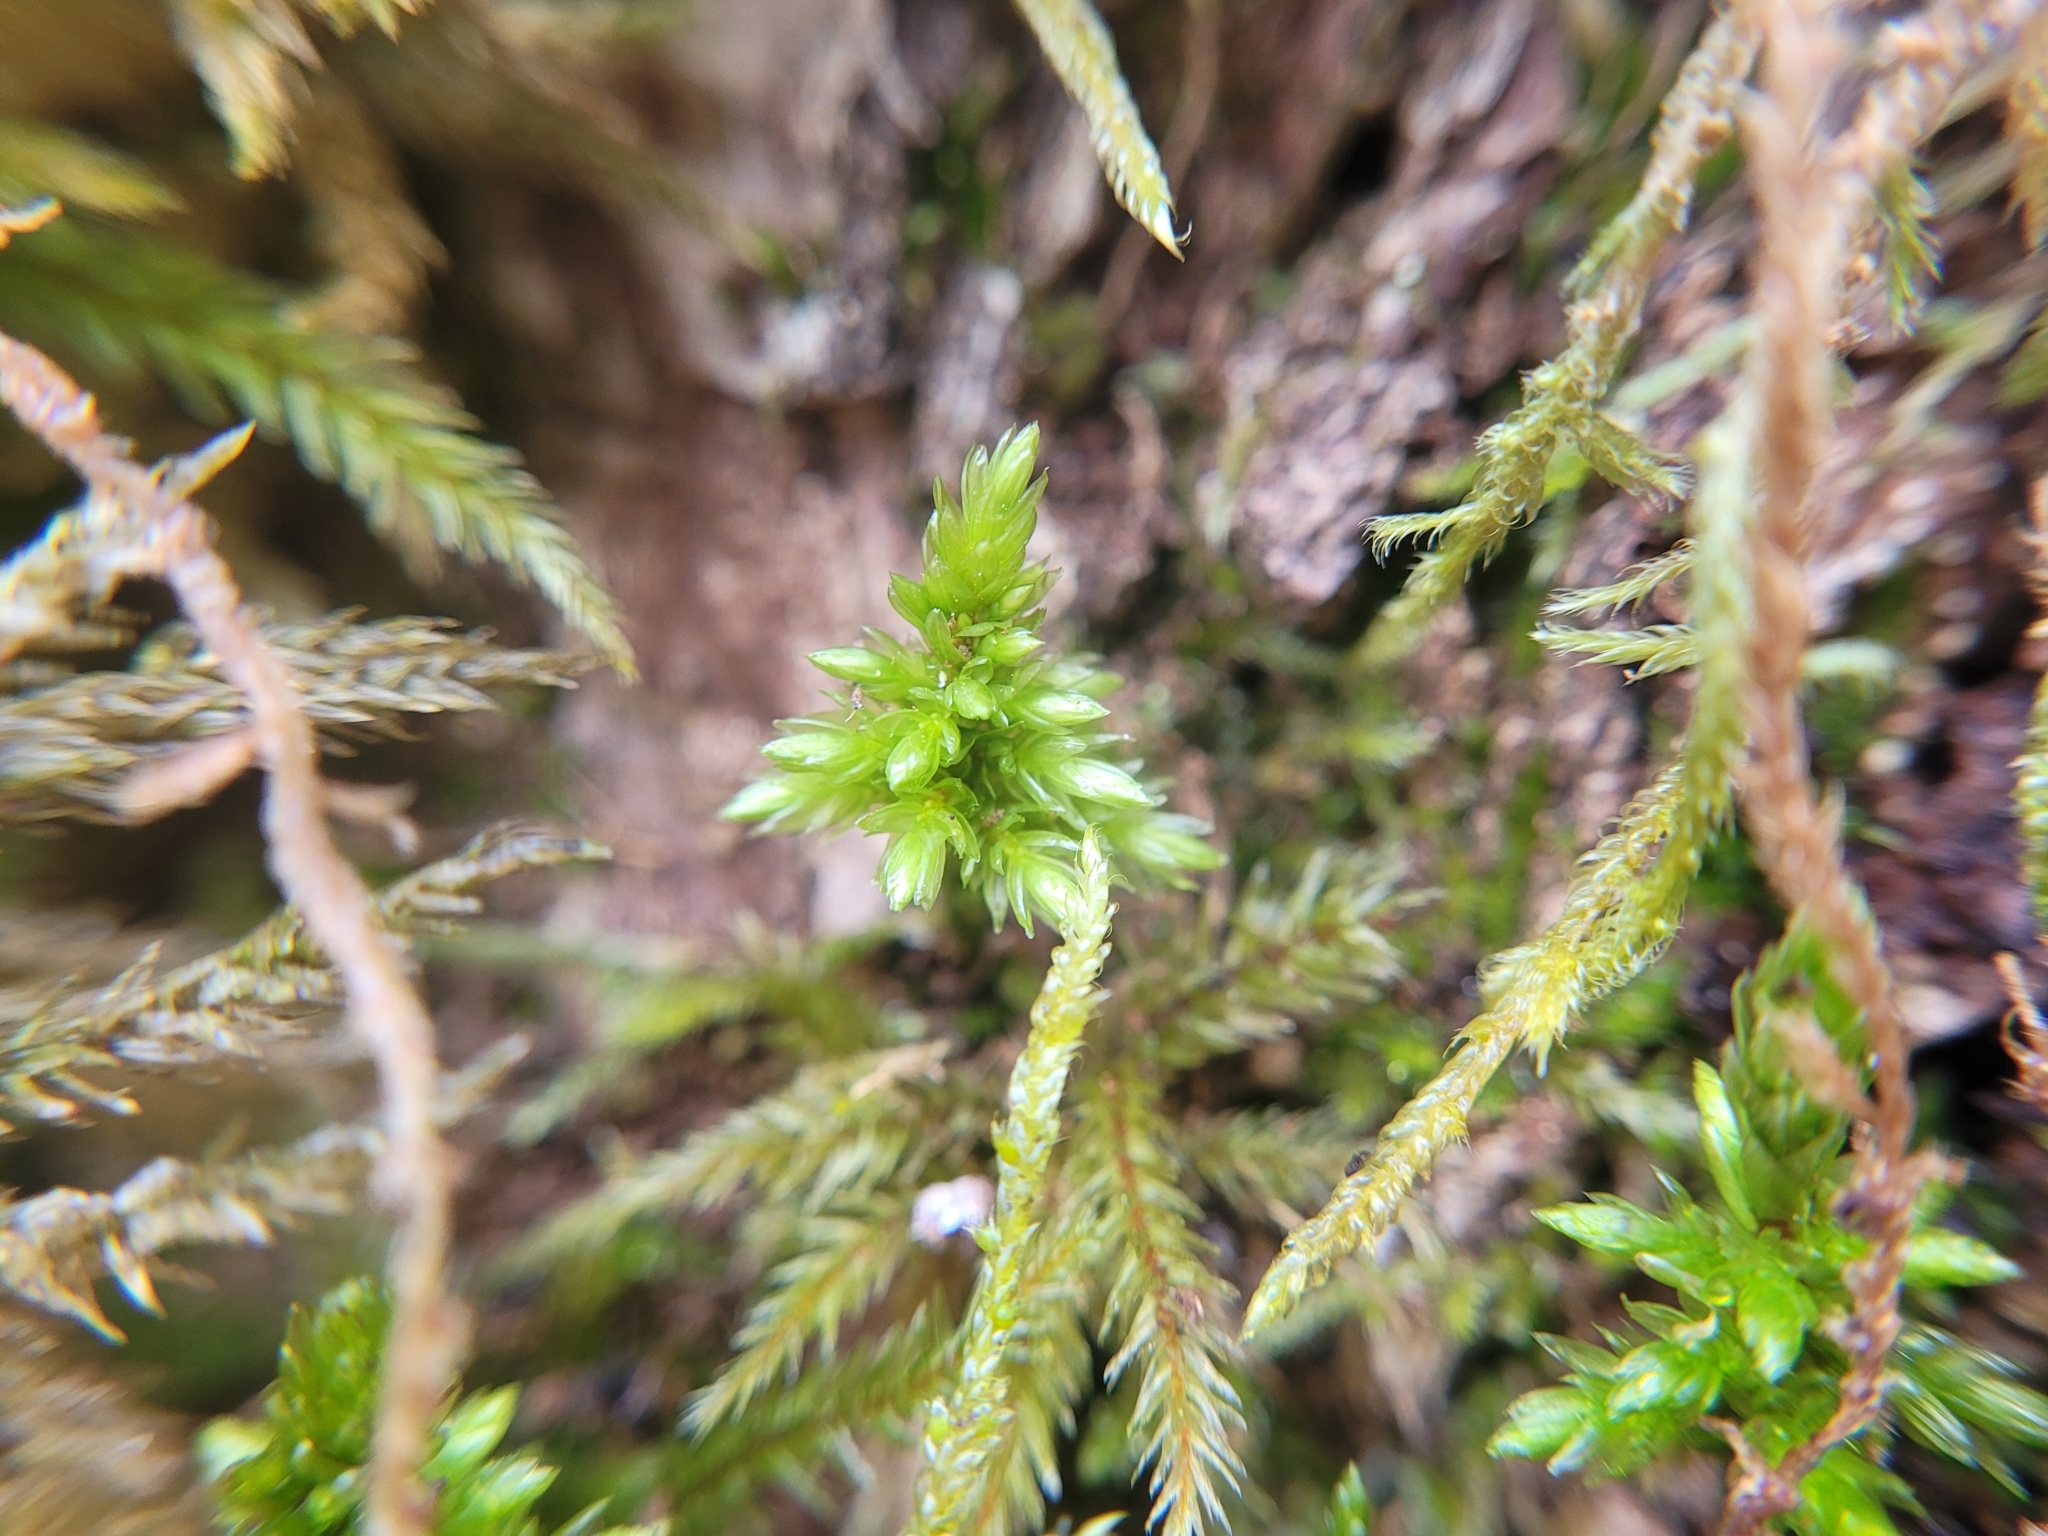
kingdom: Plantae
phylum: Bryophyta
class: Bryopsida
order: Hypnales
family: Climaciaceae
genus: Climacium
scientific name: Climacium dendroides
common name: Northern tree moss
